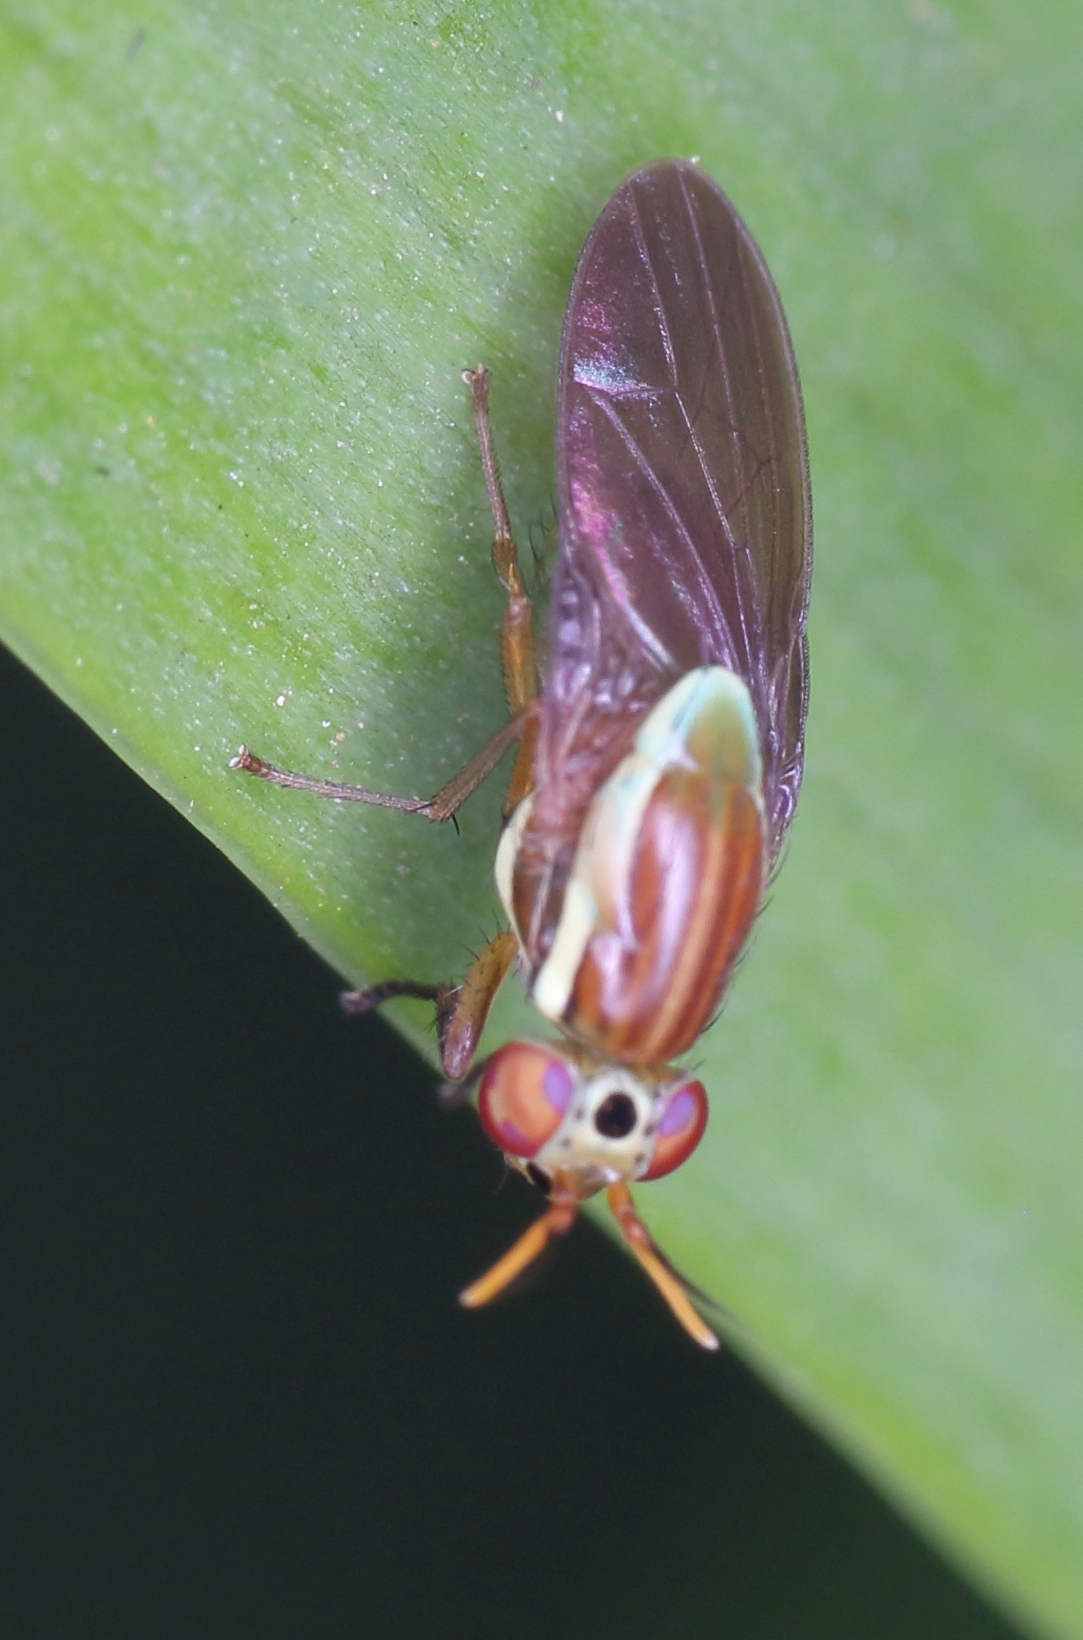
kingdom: Animalia
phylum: Arthropoda
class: Insecta
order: Diptera
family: Lauxaniidae
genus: Pachycerina
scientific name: Pachycerina
